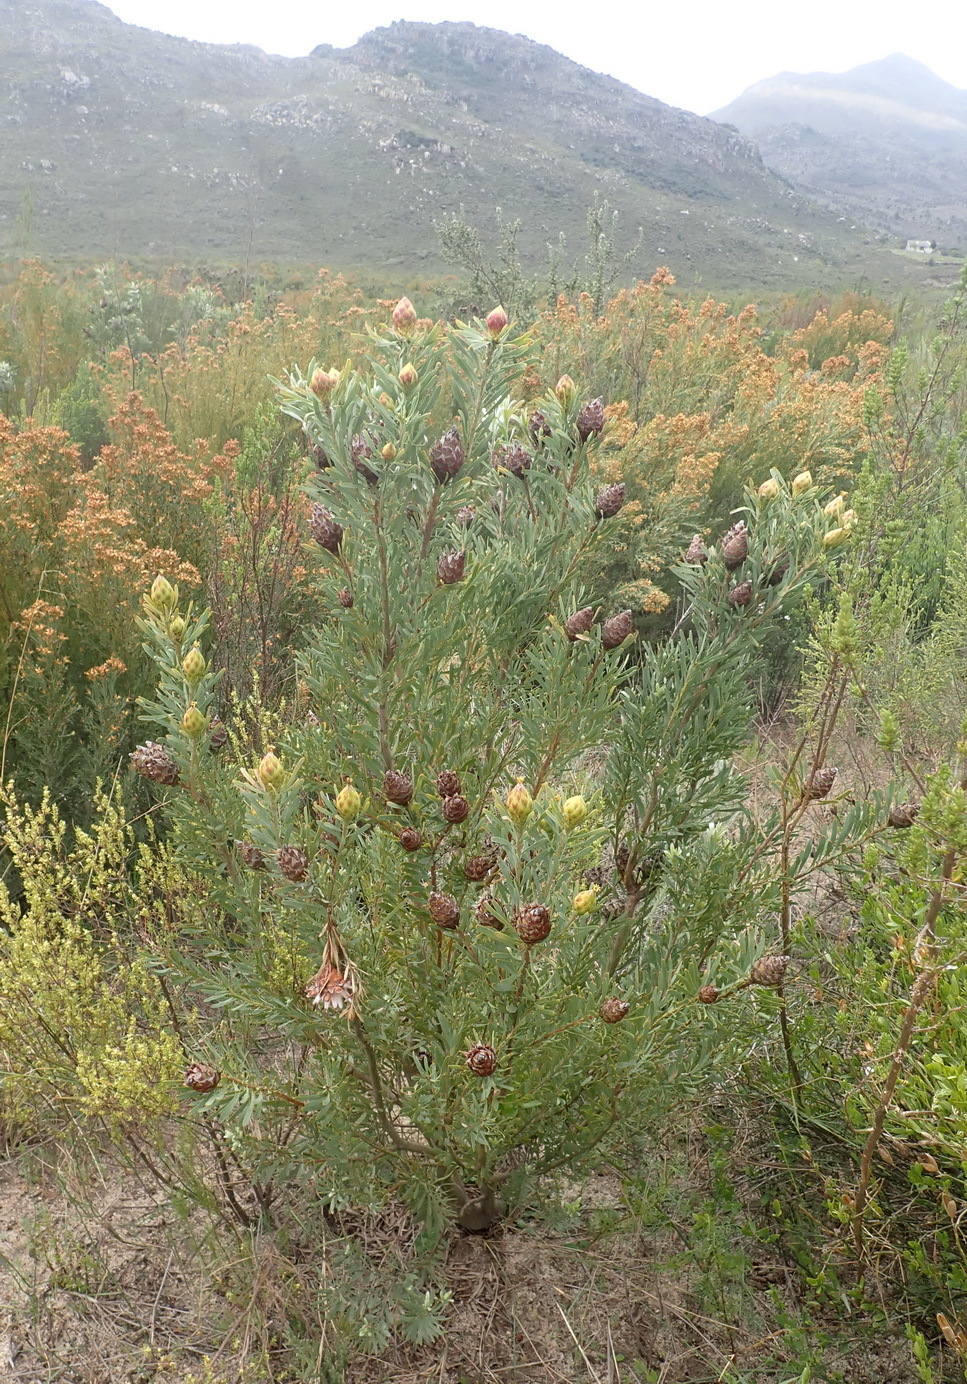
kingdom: Plantae
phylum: Tracheophyta
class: Magnoliopsida
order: Proteales
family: Proteaceae
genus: Leucadendron
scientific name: Leucadendron rubrum
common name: Spinning top
